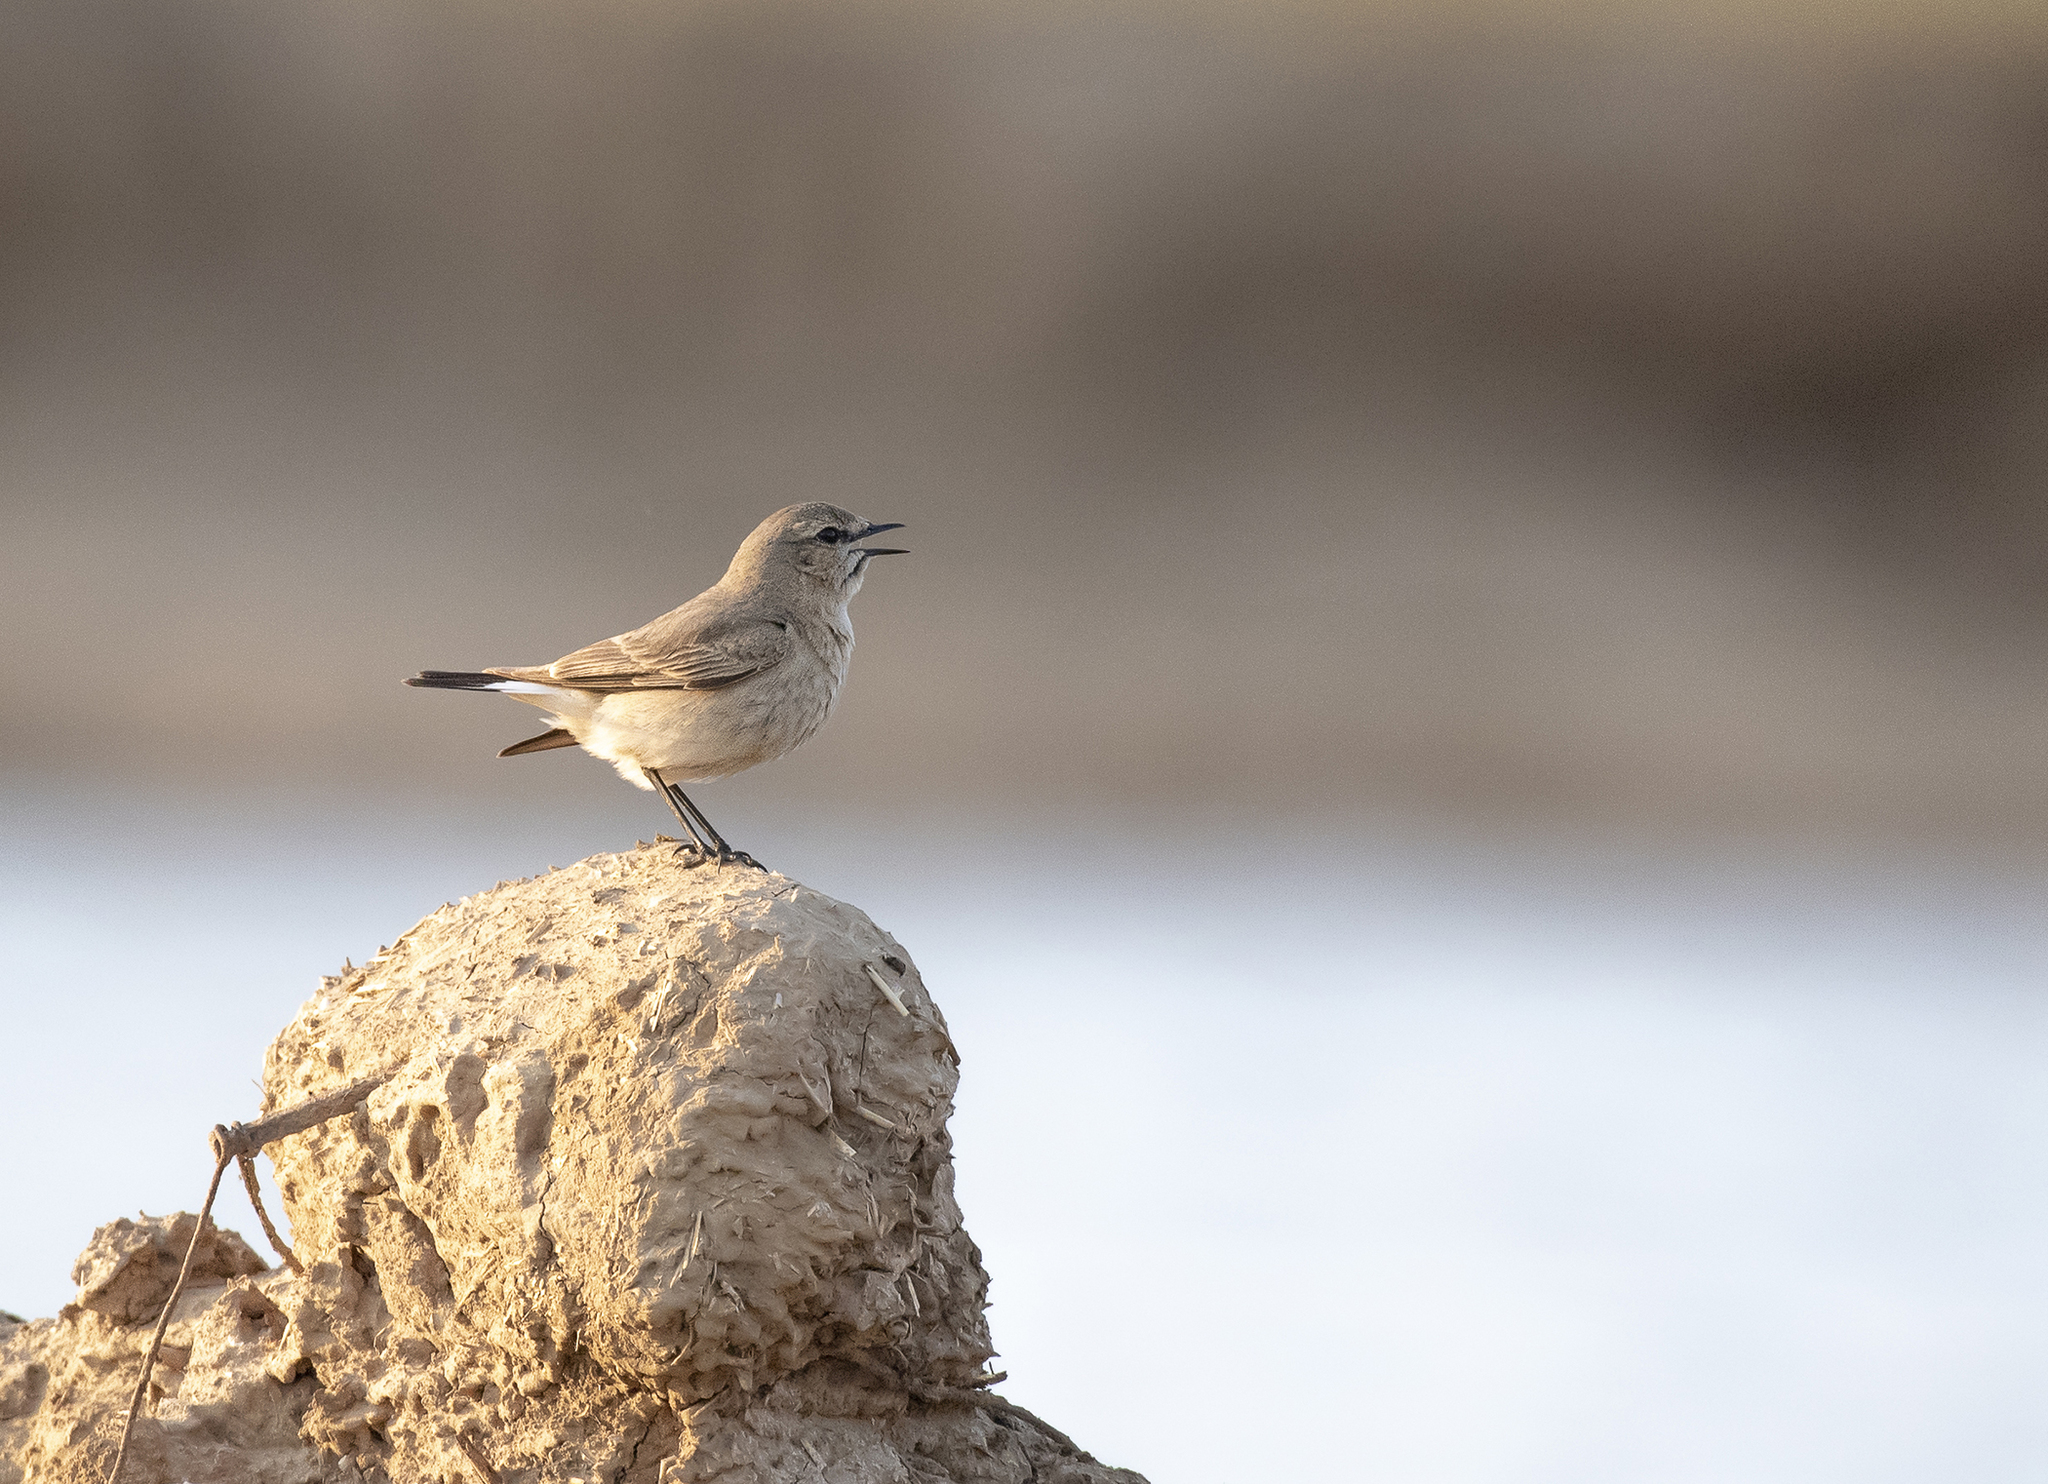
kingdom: Animalia
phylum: Chordata
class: Aves
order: Passeriformes
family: Muscicapidae
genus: Oenanthe
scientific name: Oenanthe isabellina
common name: Isabelline wheatear
